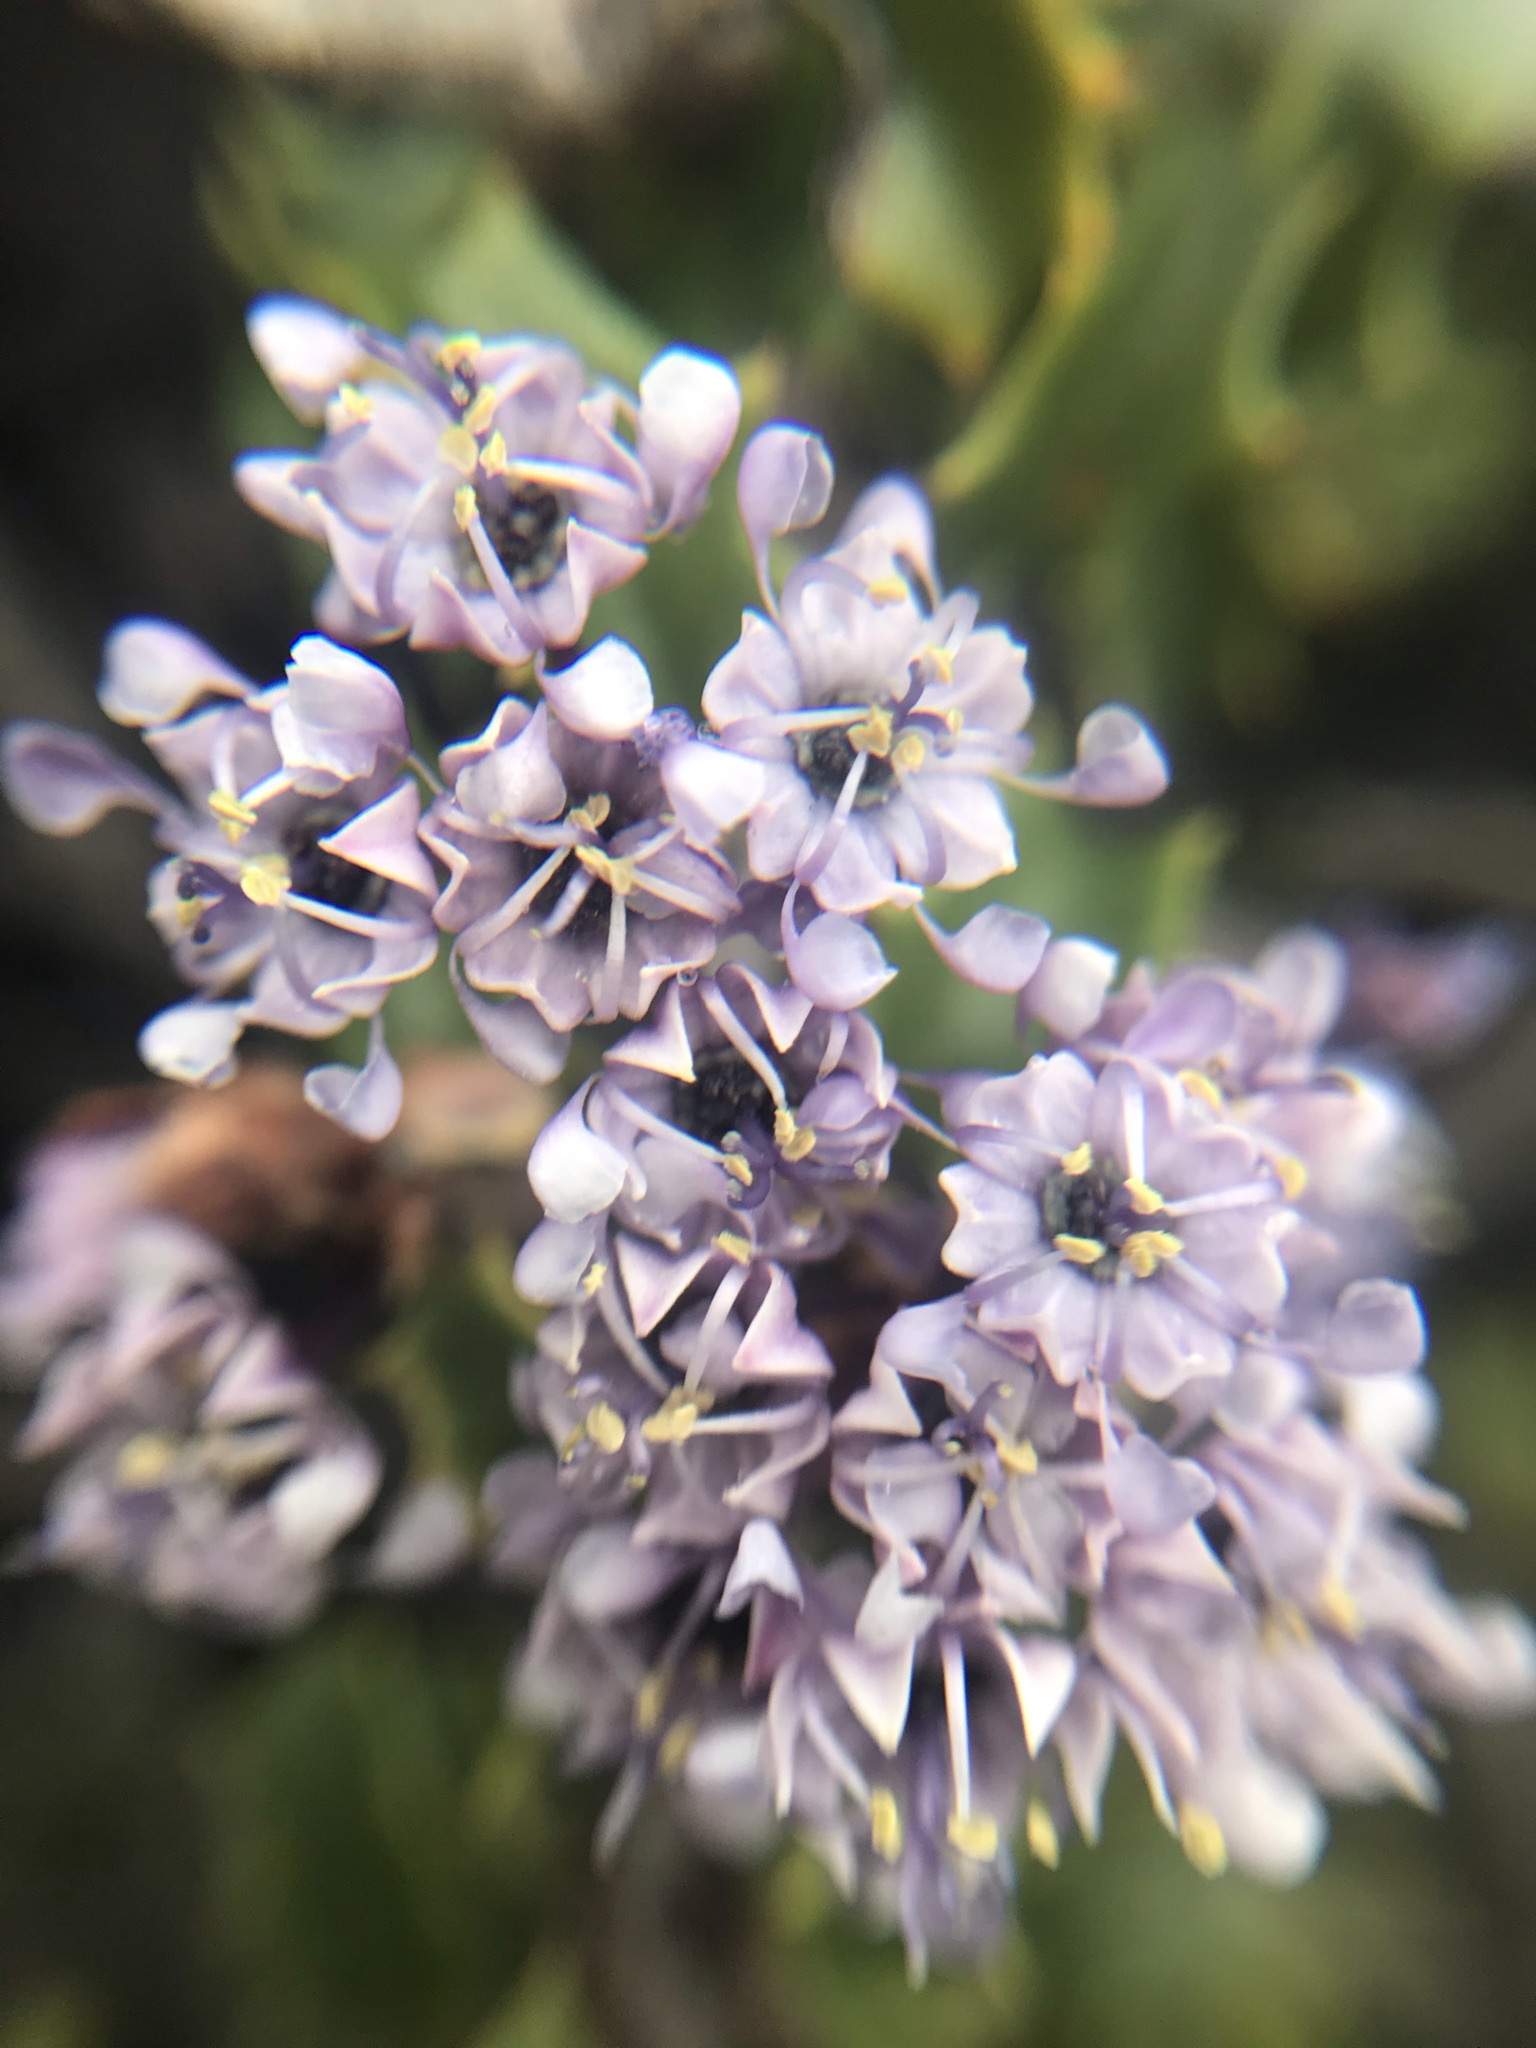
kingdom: Plantae
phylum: Tracheophyta
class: Magnoliopsida
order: Rosales
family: Rhamnaceae
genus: Ceanothus
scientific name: Ceanothus jepsonii
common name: Muskbrush
